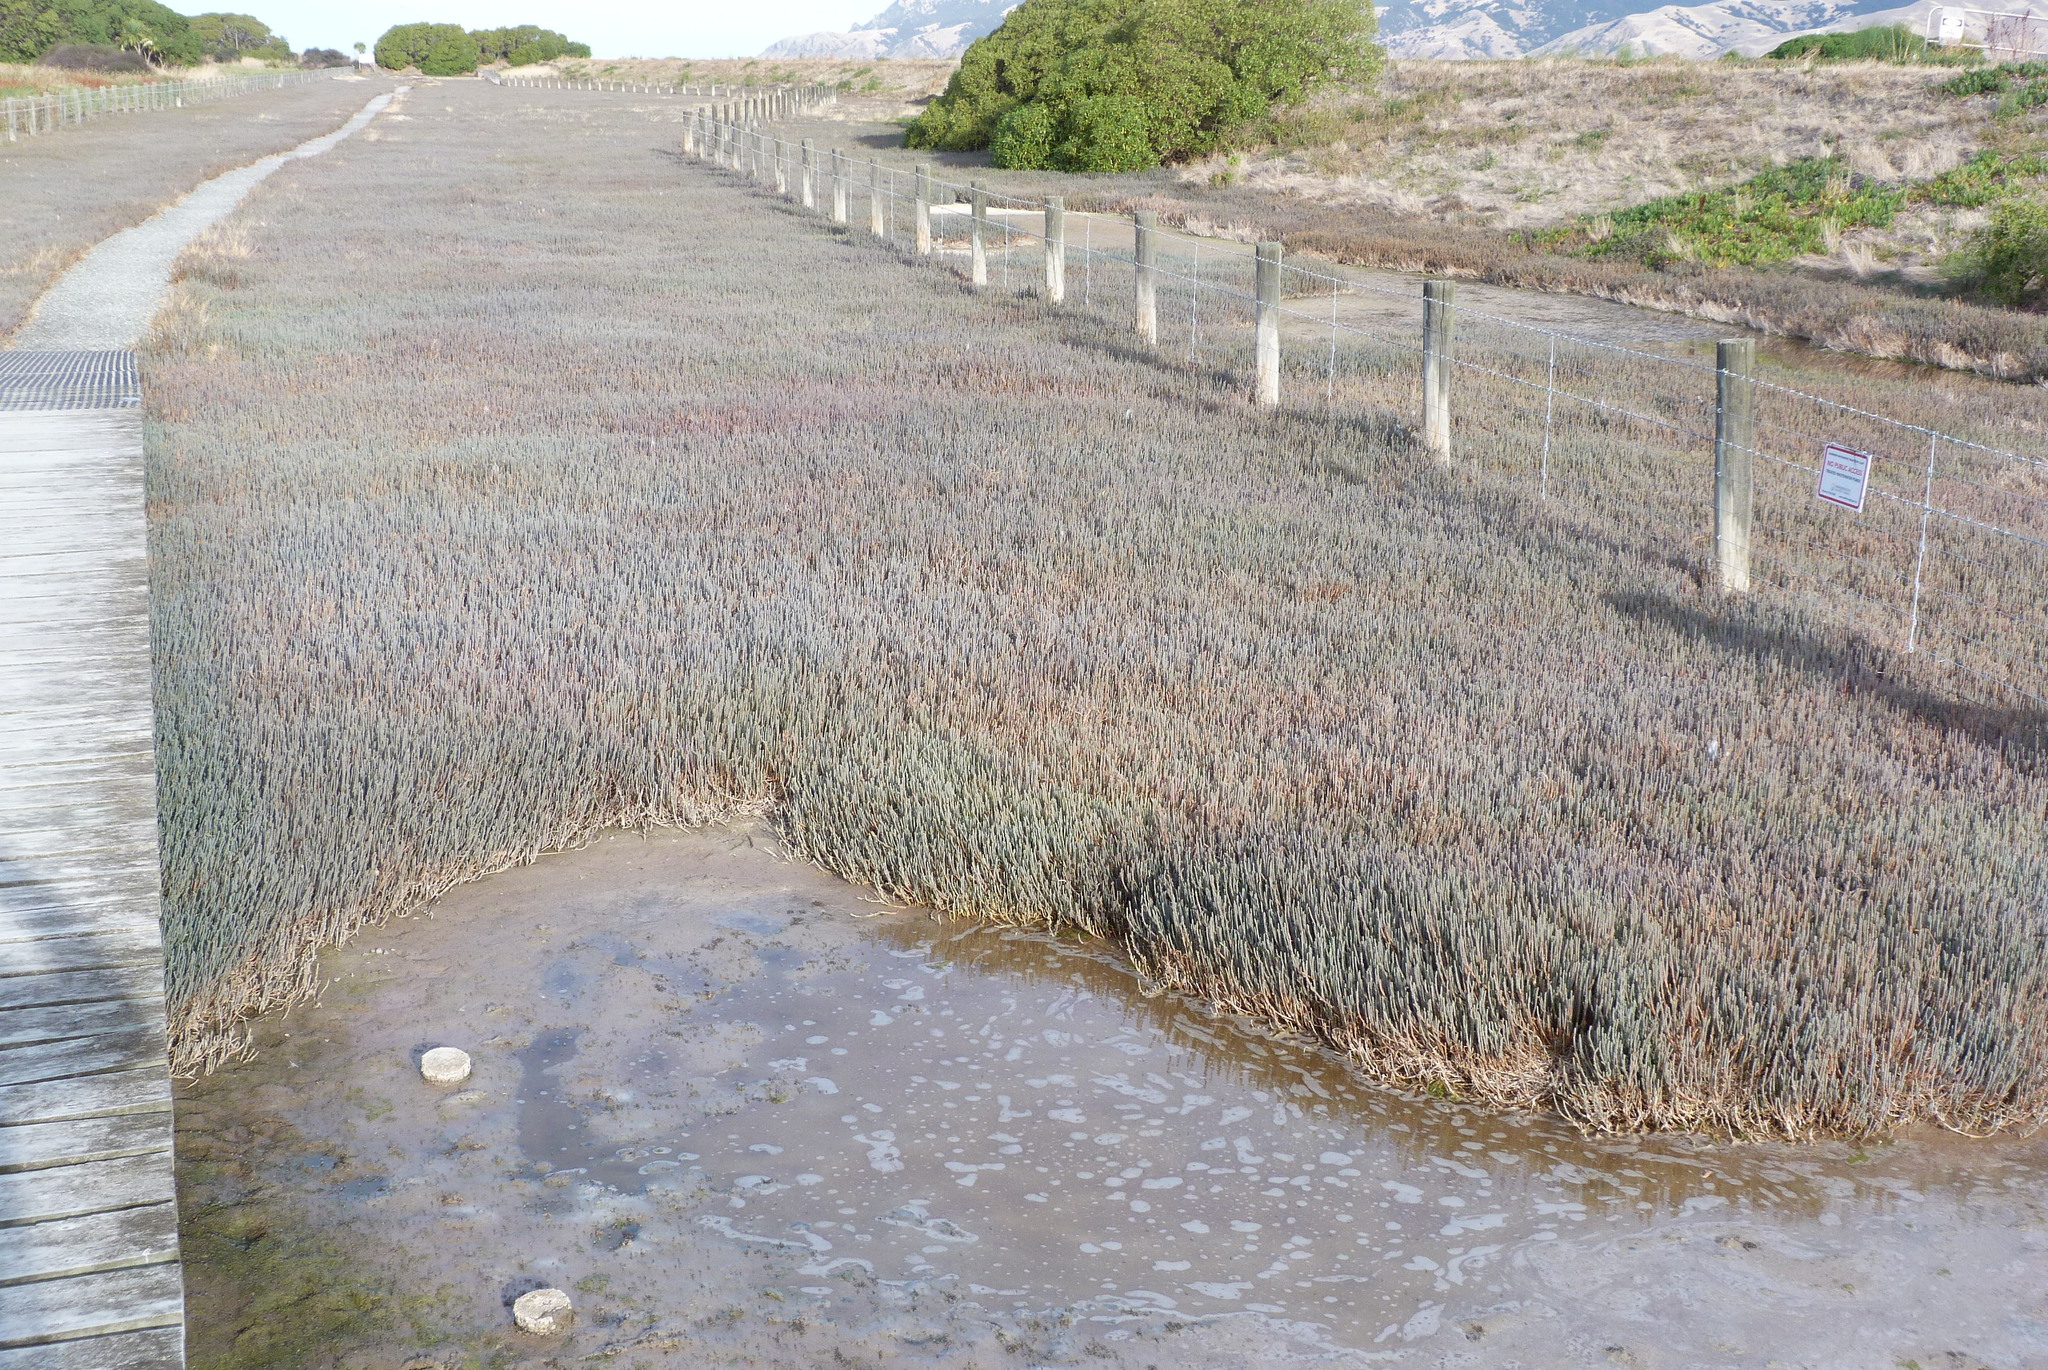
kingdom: Plantae
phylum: Tracheophyta
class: Magnoliopsida
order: Caryophyllales
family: Amaranthaceae
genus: Salicornia
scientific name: Salicornia quinqueflora
